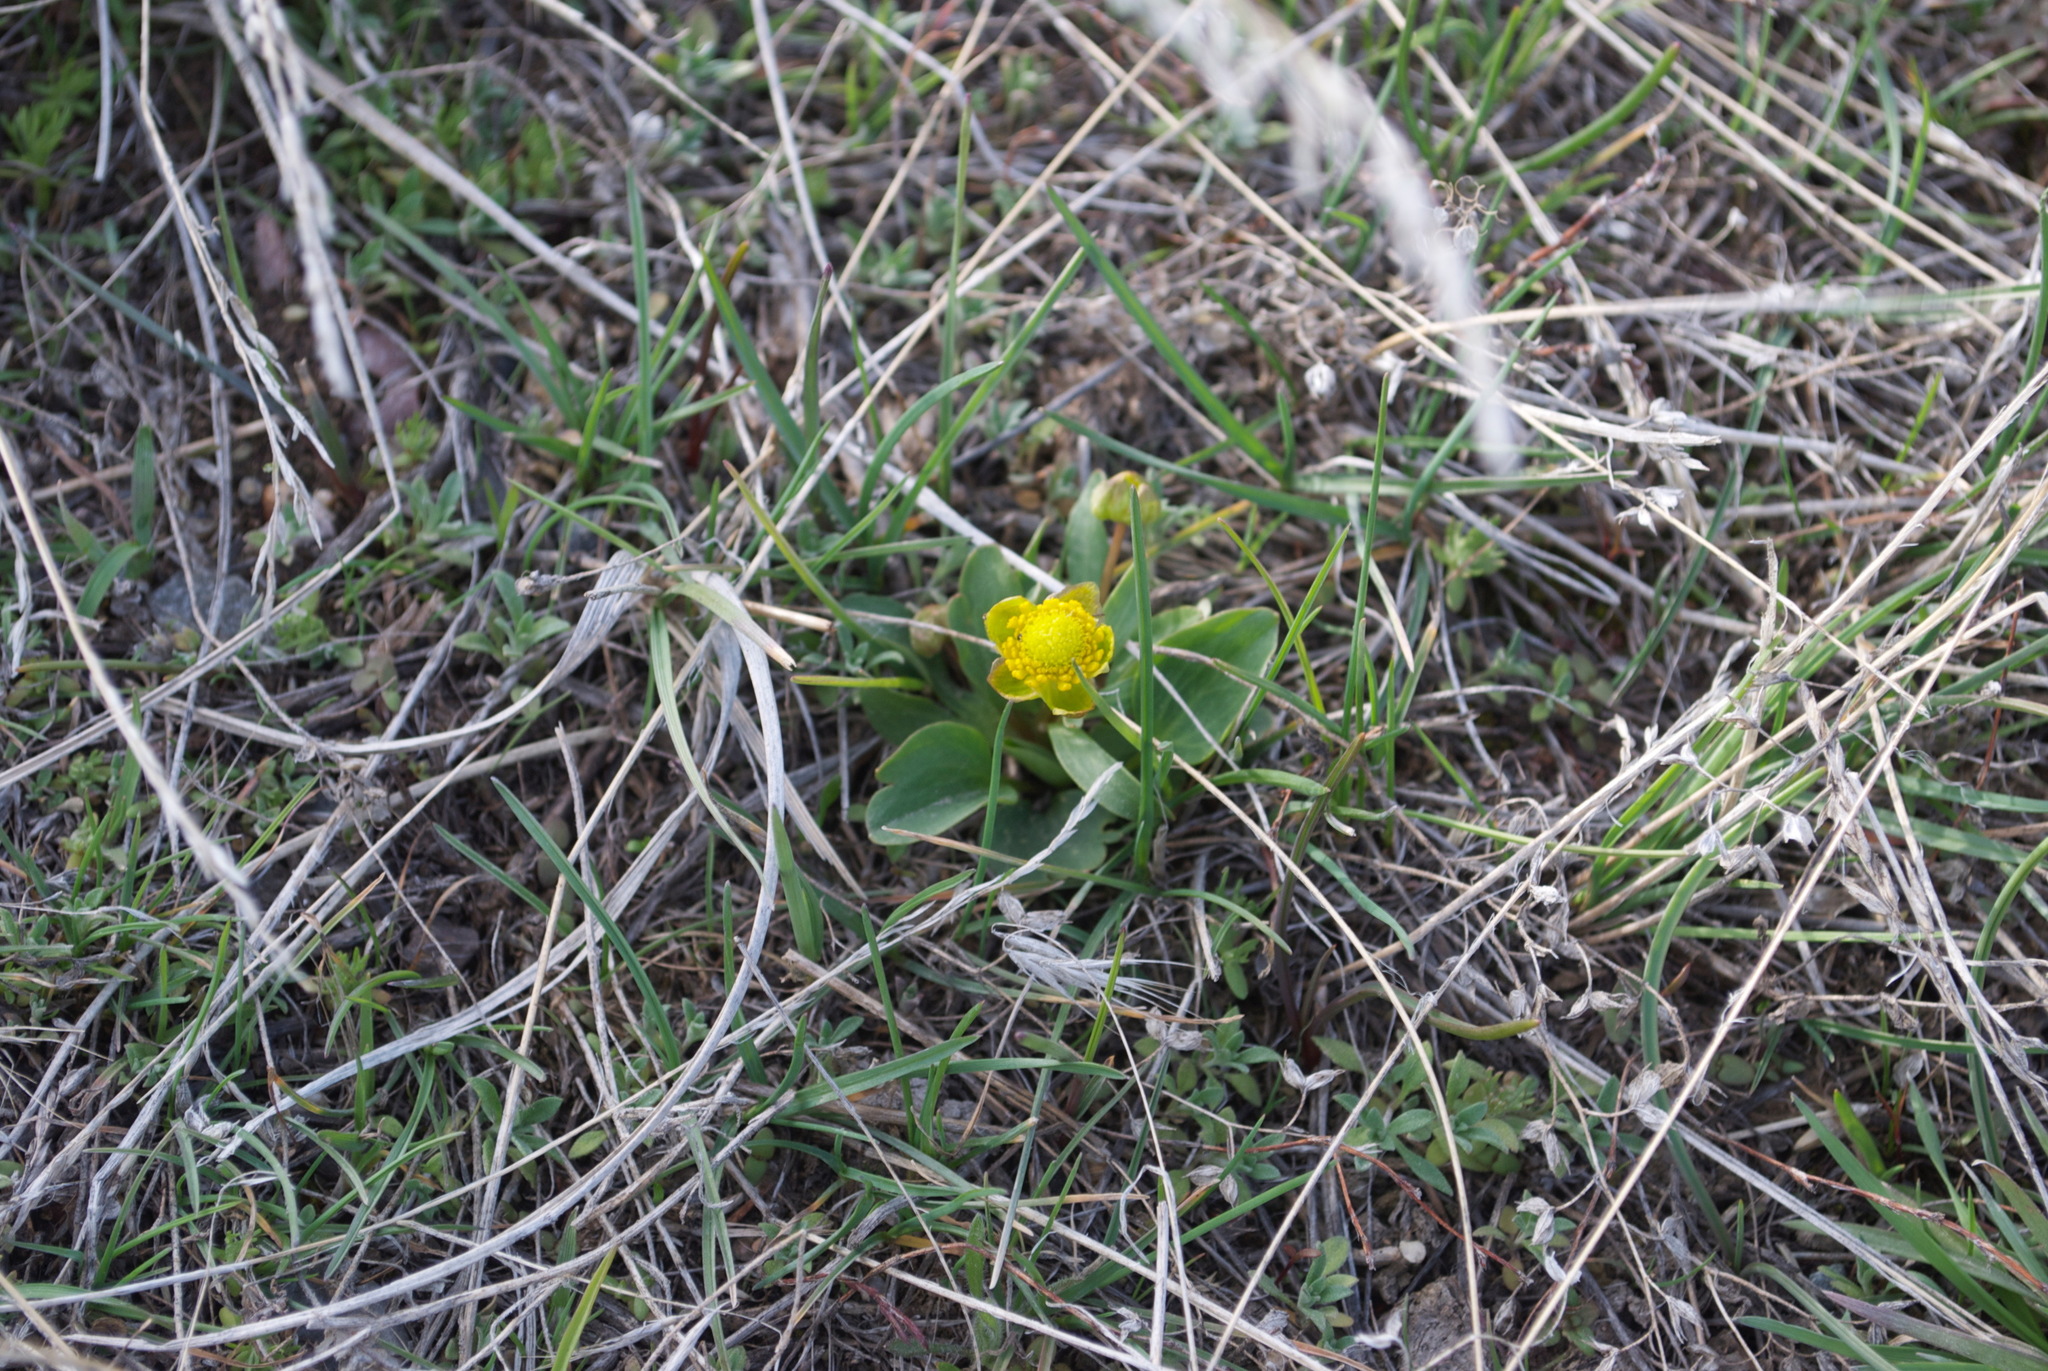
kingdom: Plantae
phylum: Tracheophyta
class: Magnoliopsida
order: Ranunculales
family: Ranunculaceae
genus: Ranunculus
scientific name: Ranunculus glaberrimus
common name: Sagebrush buttercup
